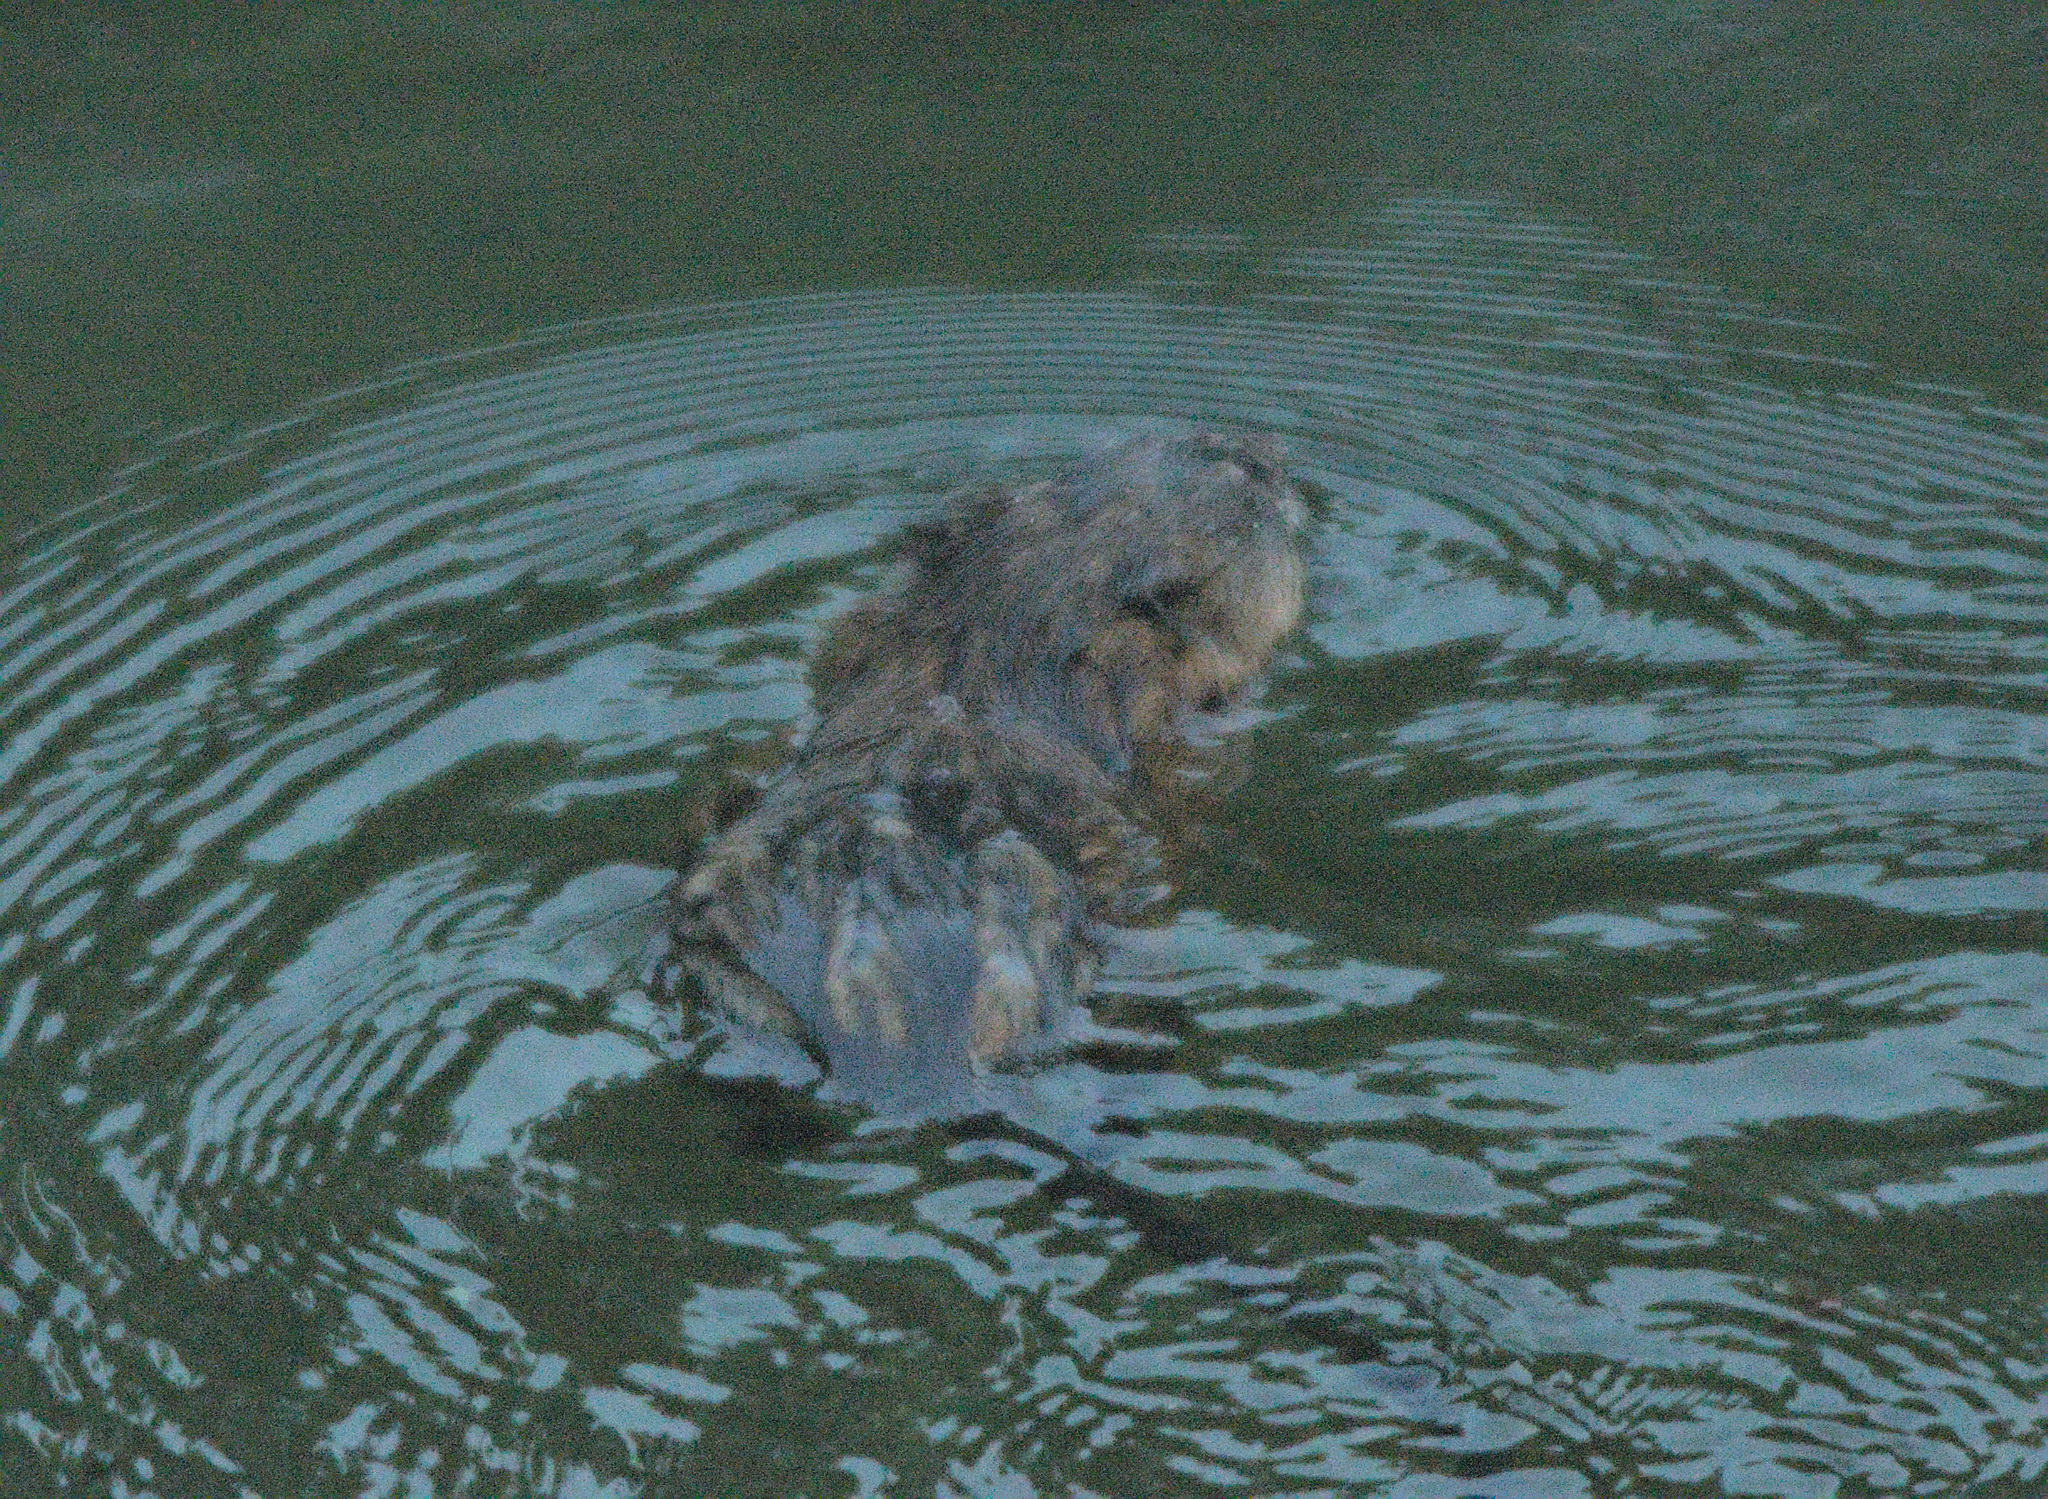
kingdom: Animalia
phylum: Chordata
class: Mammalia
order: Rodentia
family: Cricetidae
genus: Ondatra
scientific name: Ondatra zibethicus
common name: Muskrat
